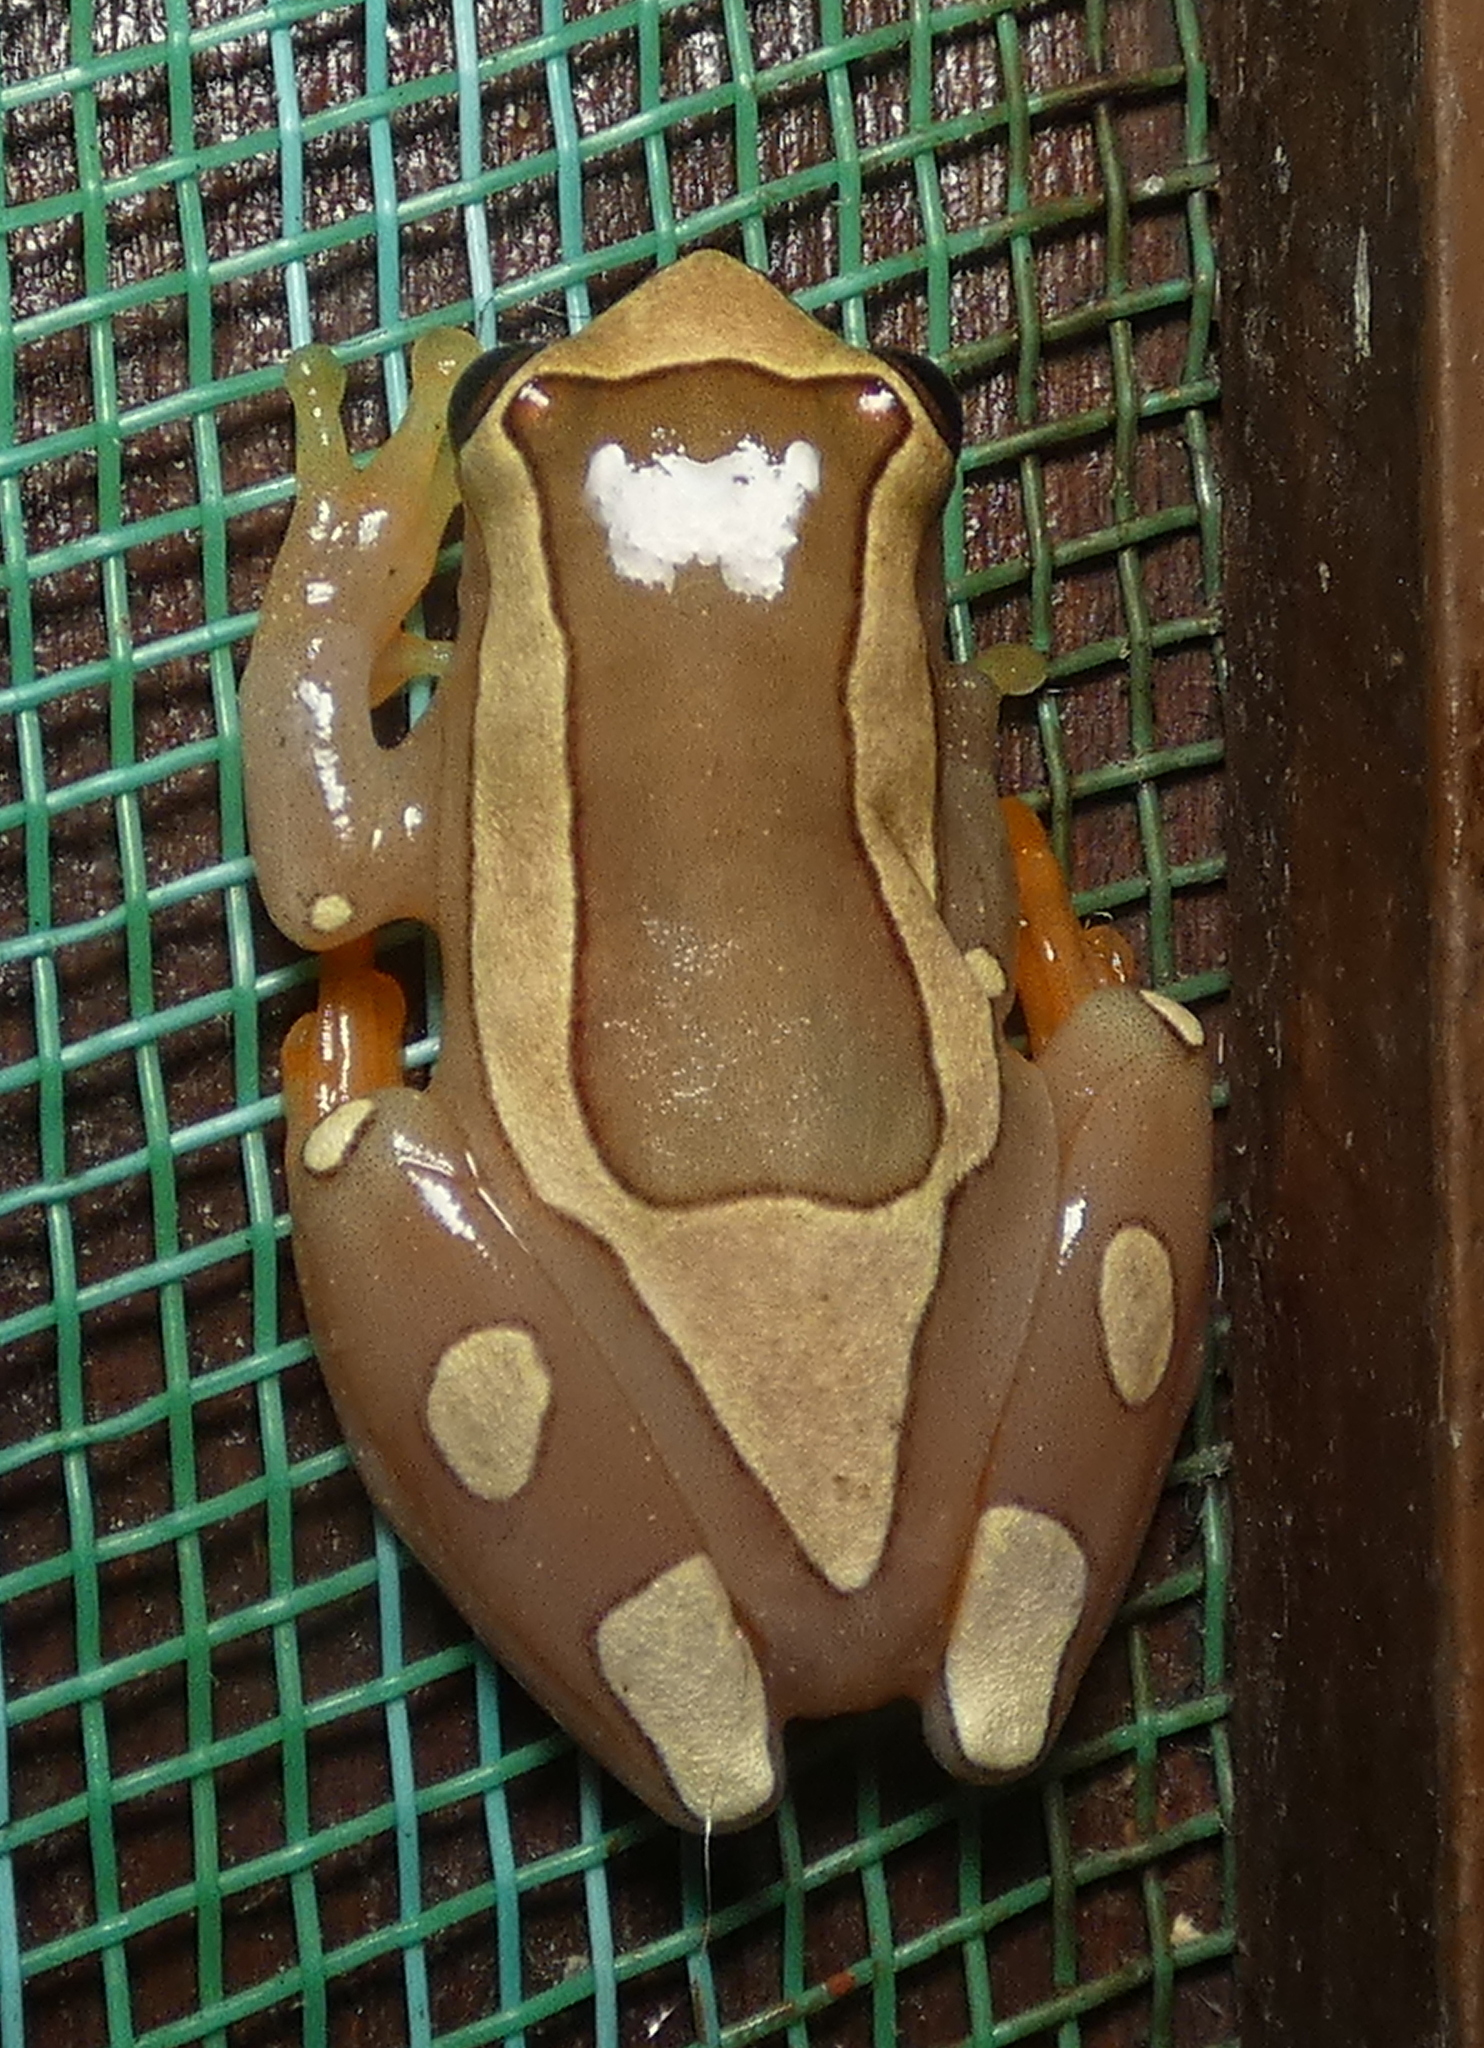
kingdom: Animalia
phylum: Chordata
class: Amphibia
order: Anura
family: Hylidae
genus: Dendropsophus
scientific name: Dendropsophus elegans
